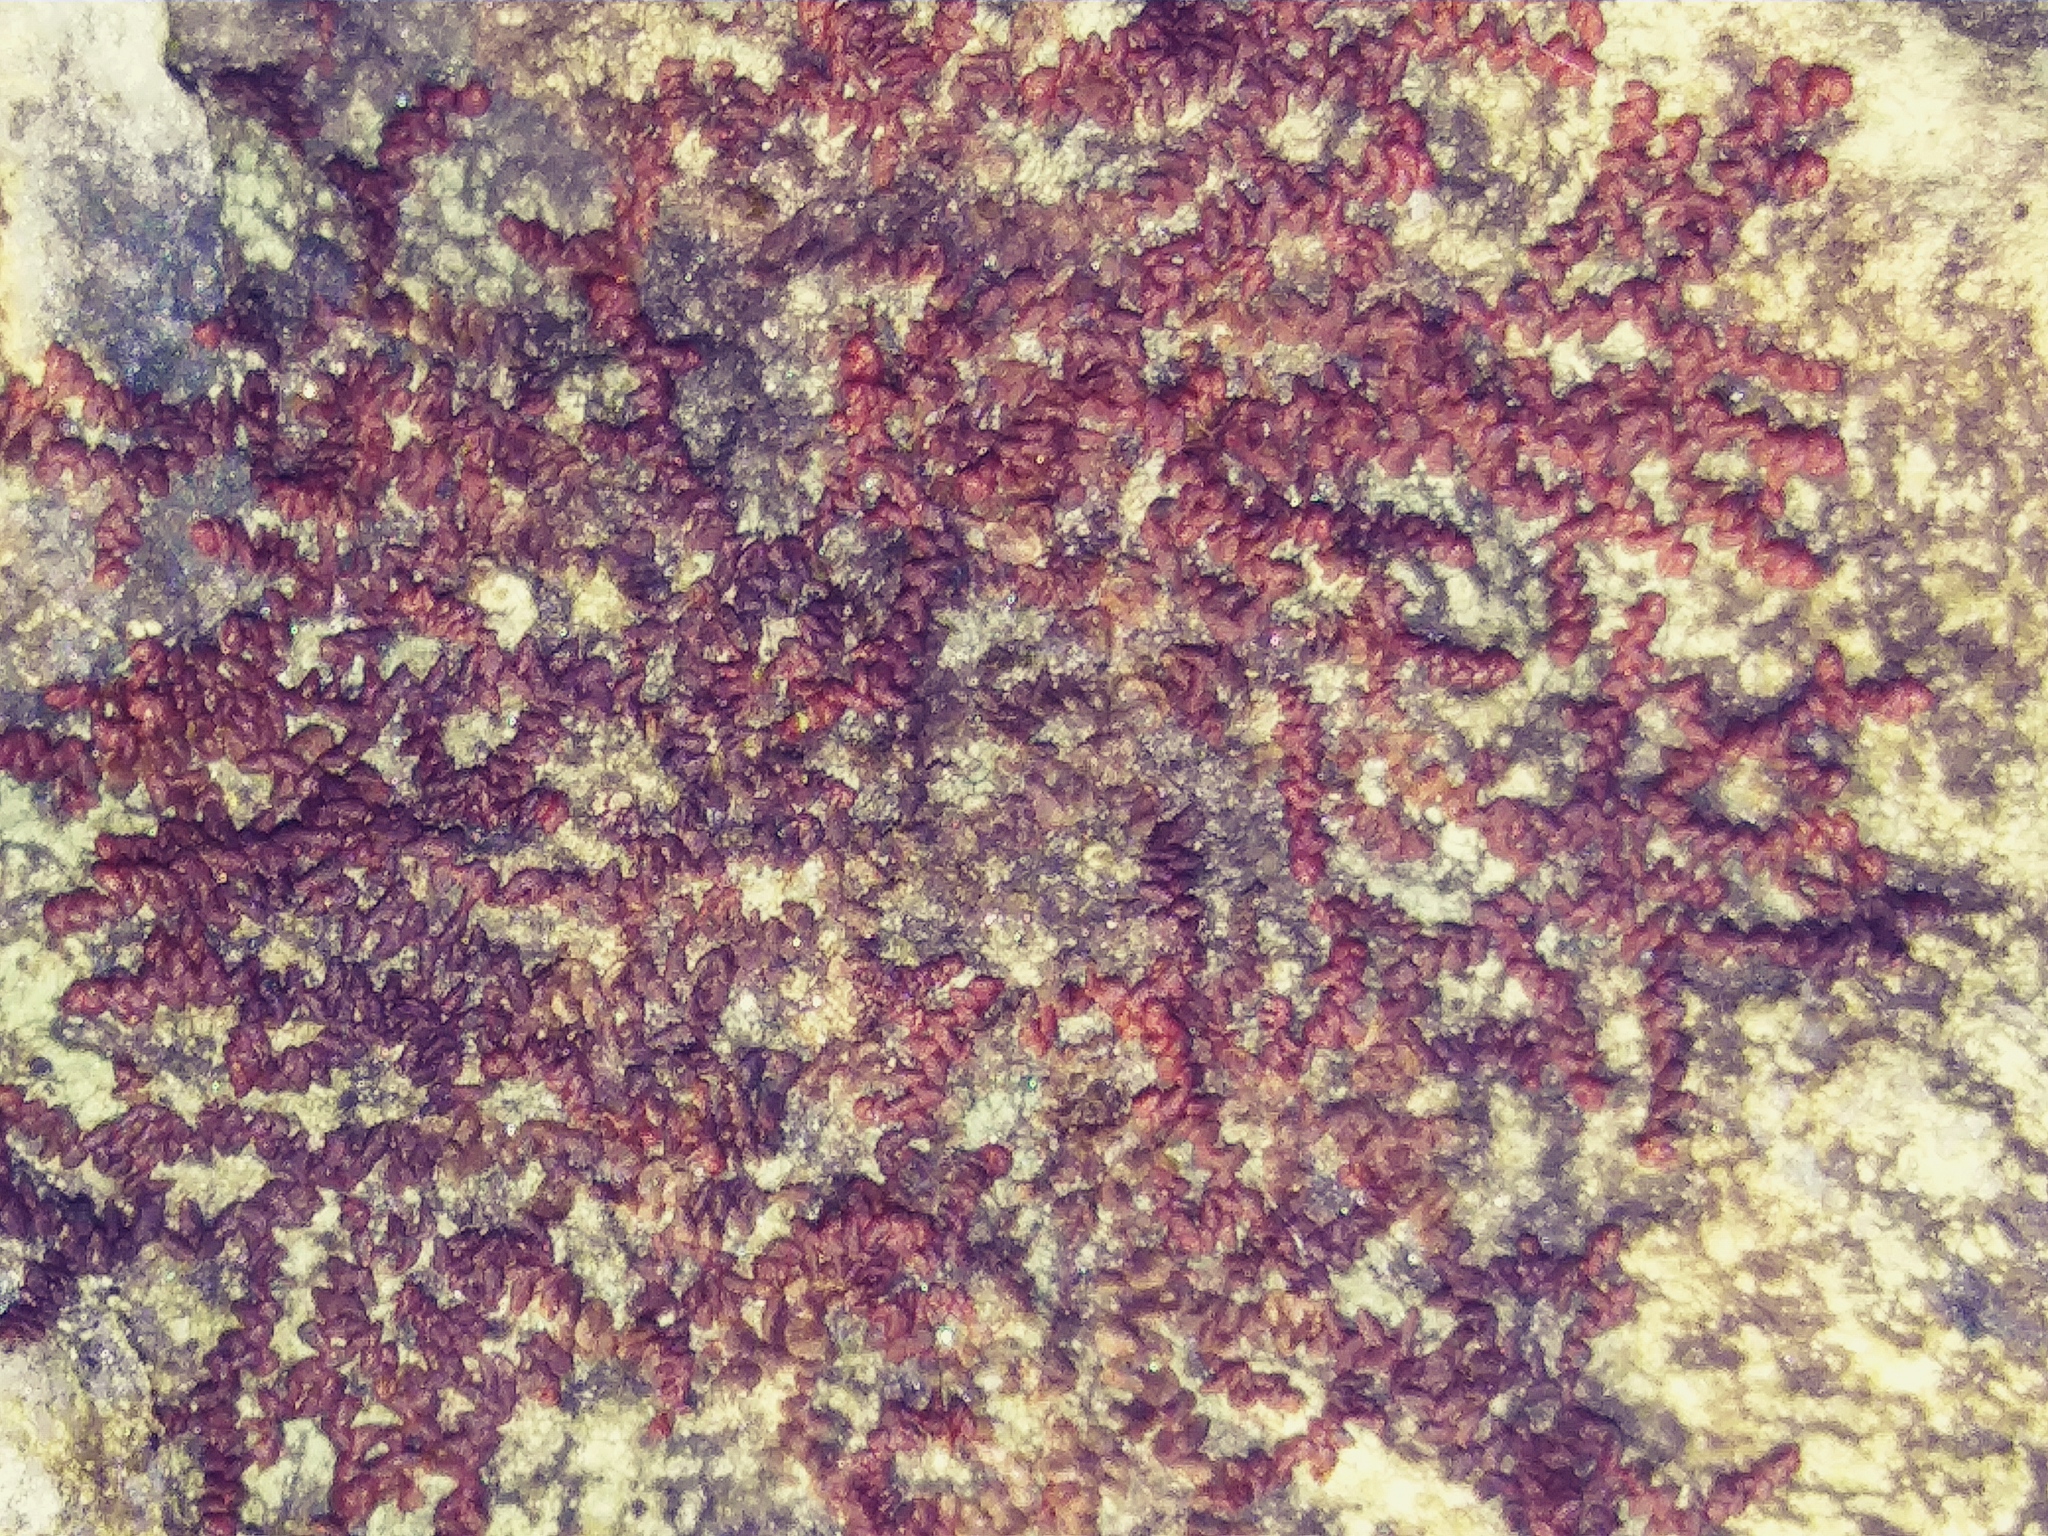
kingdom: Plantae
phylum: Marchantiophyta
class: Jungermanniopsida
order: Porellales
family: Frullaniaceae
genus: Frullania
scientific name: Frullania eboracensis
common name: New york scalewort
